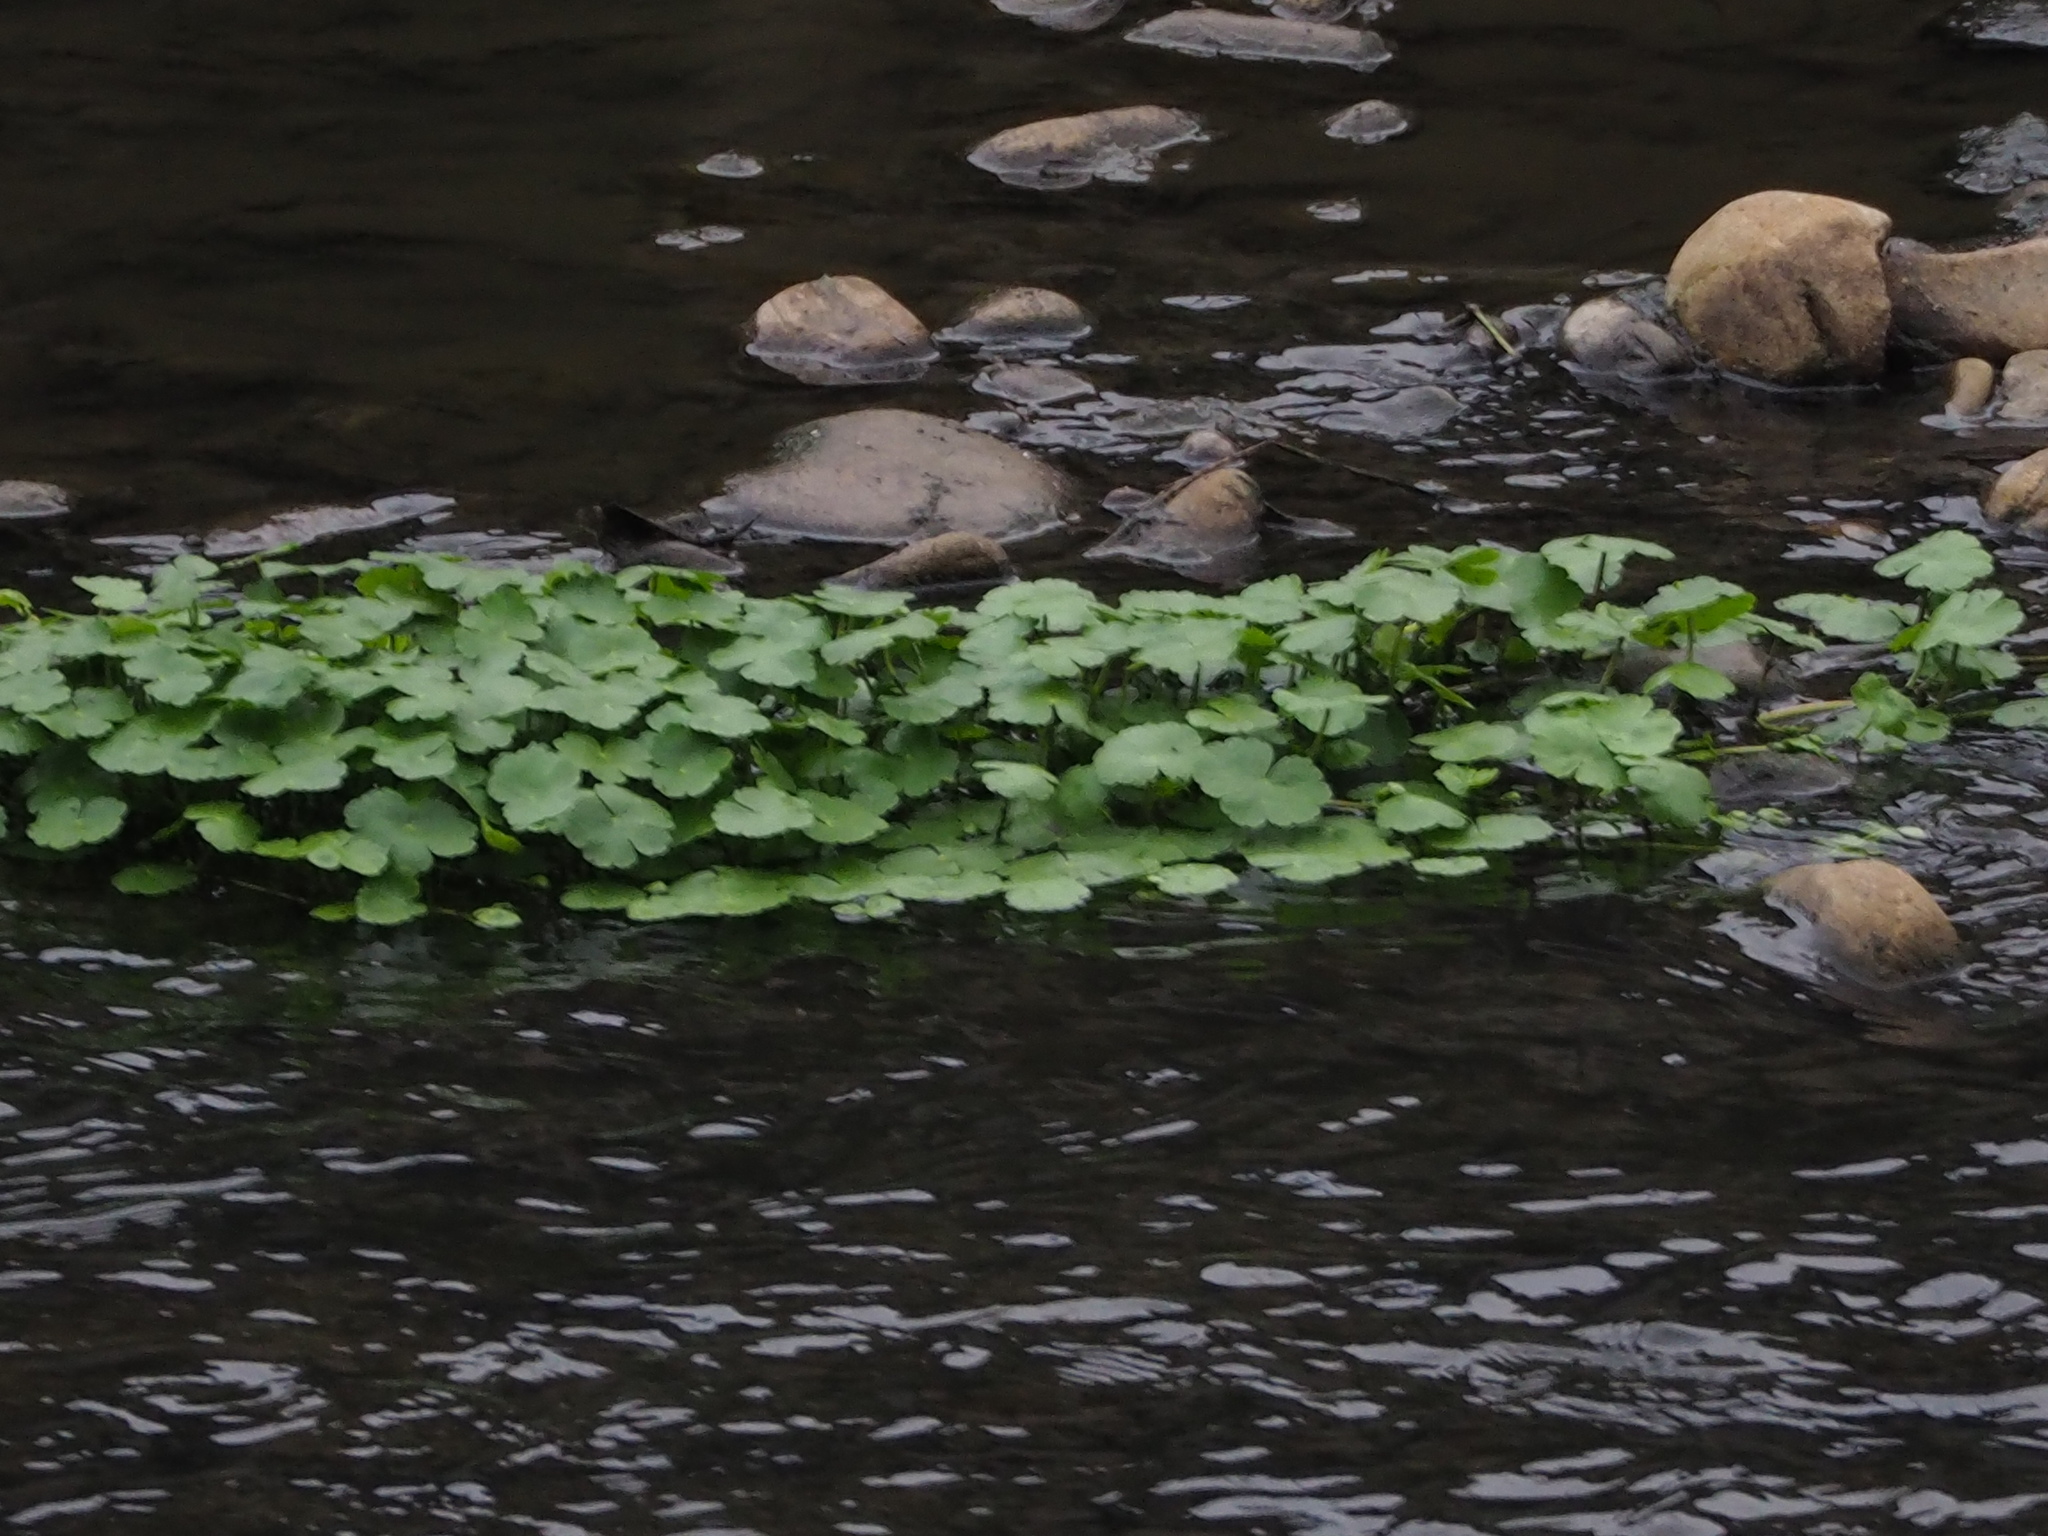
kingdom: Plantae
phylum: Tracheophyta
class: Magnoliopsida
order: Apiales
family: Araliaceae
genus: Hydrocotyle
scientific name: Hydrocotyle ranunculoides
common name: Floating pennywort
